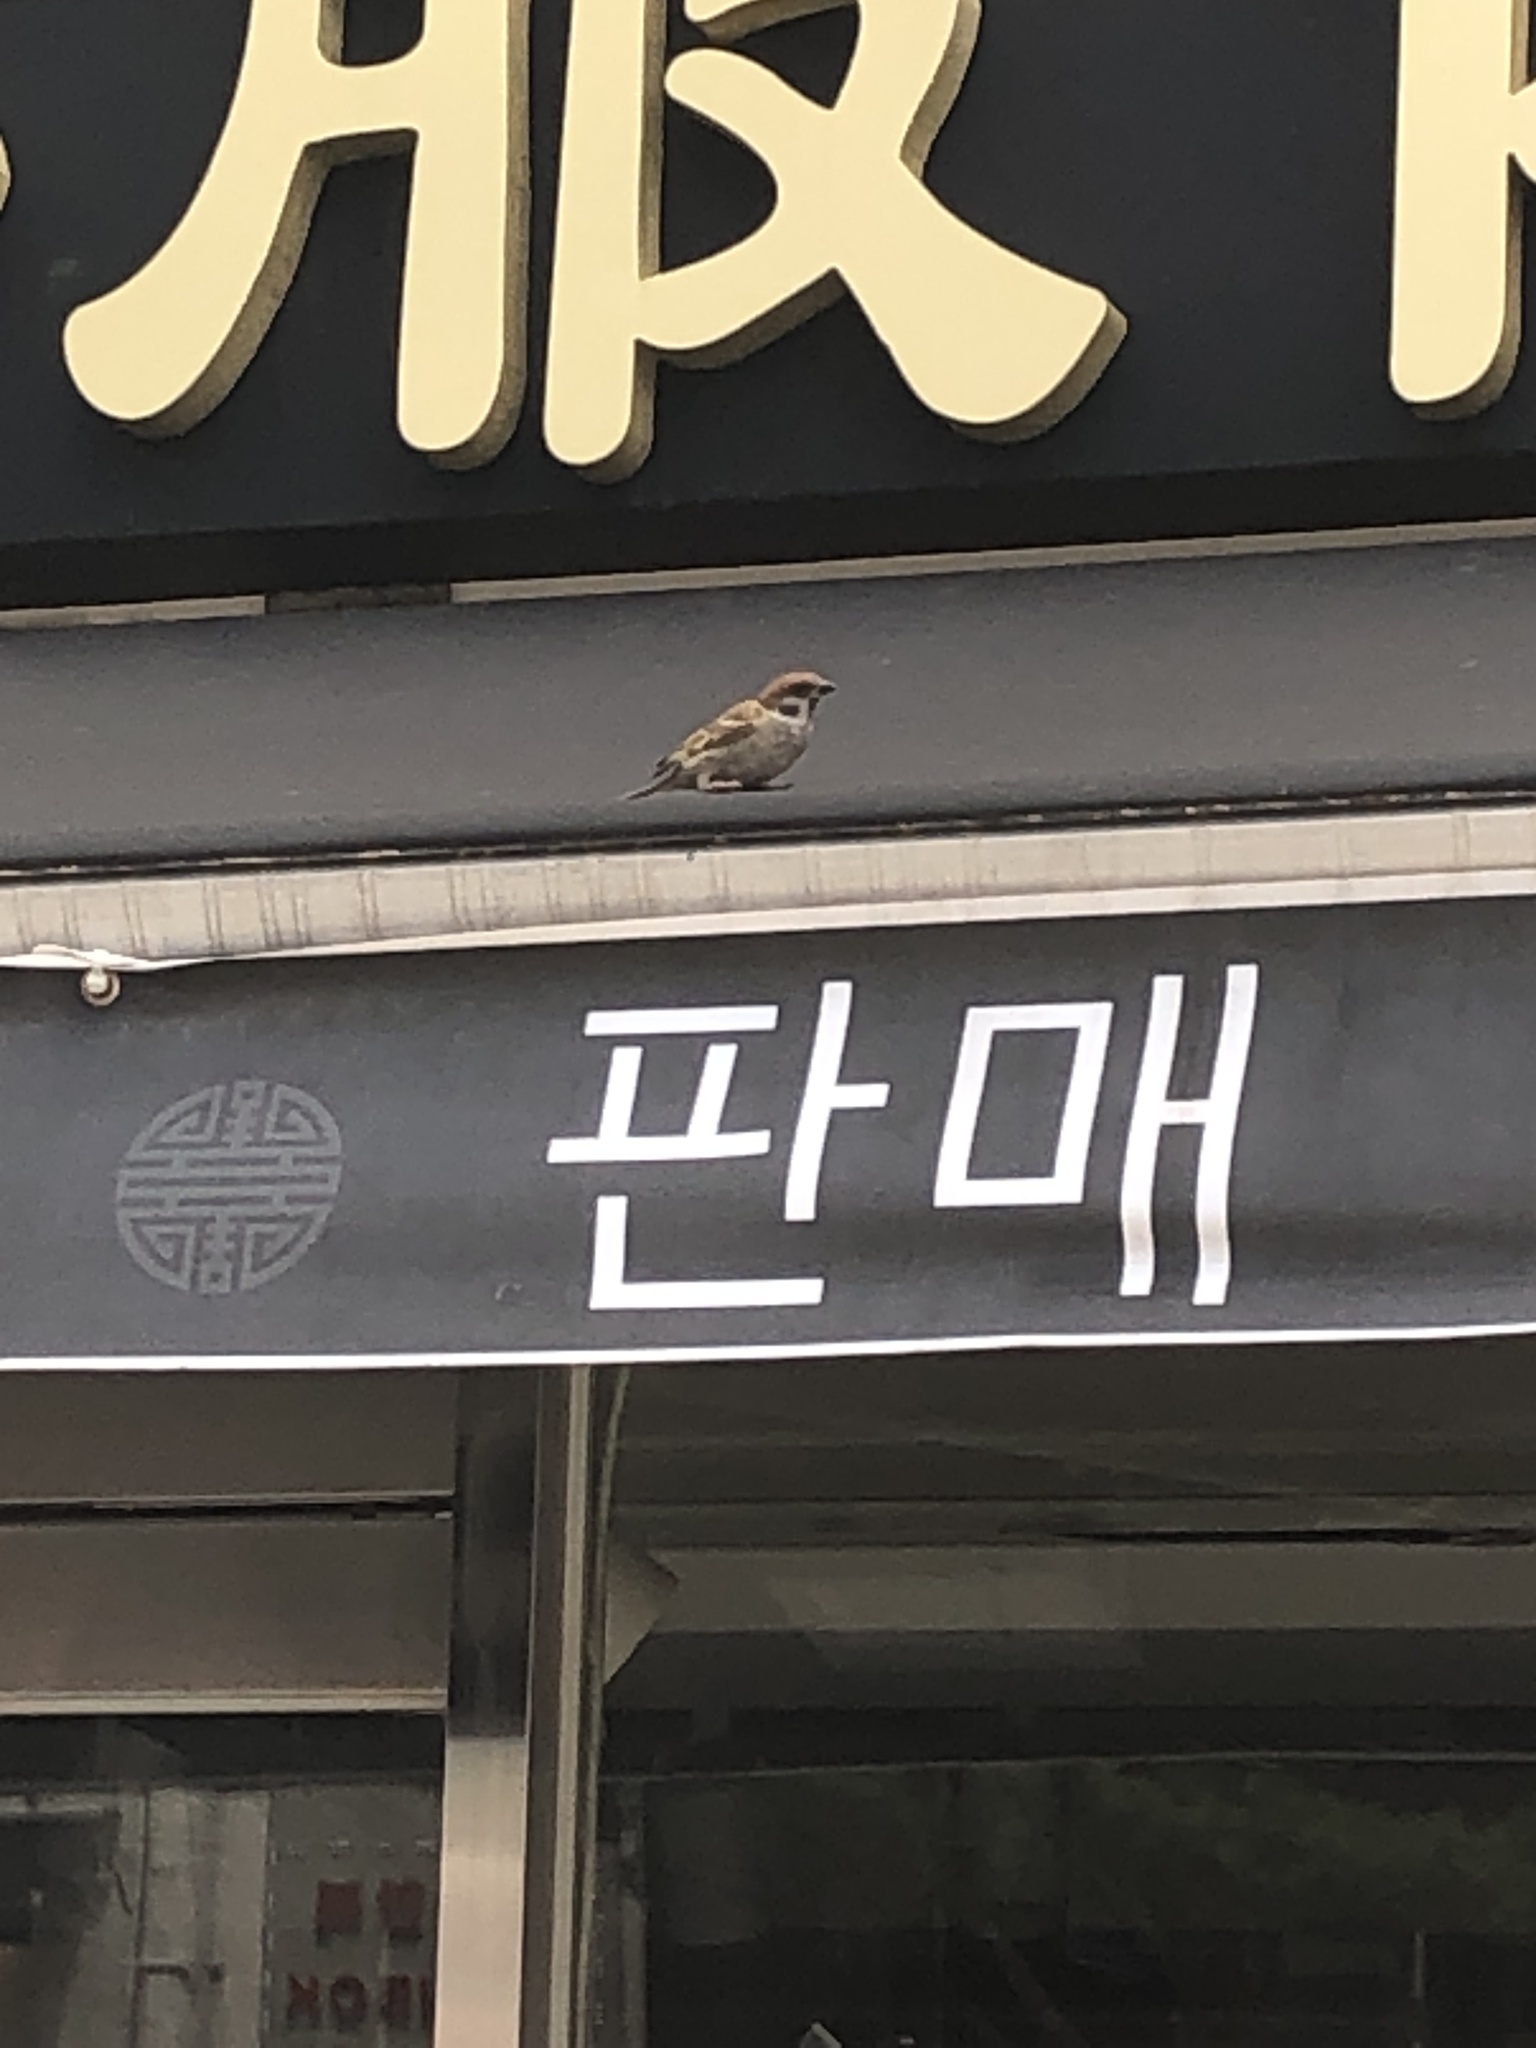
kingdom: Animalia
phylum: Chordata
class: Aves
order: Passeriformes
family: Passeridae
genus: Passer
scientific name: Passer montanus
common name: Eurasian tree sparrow
